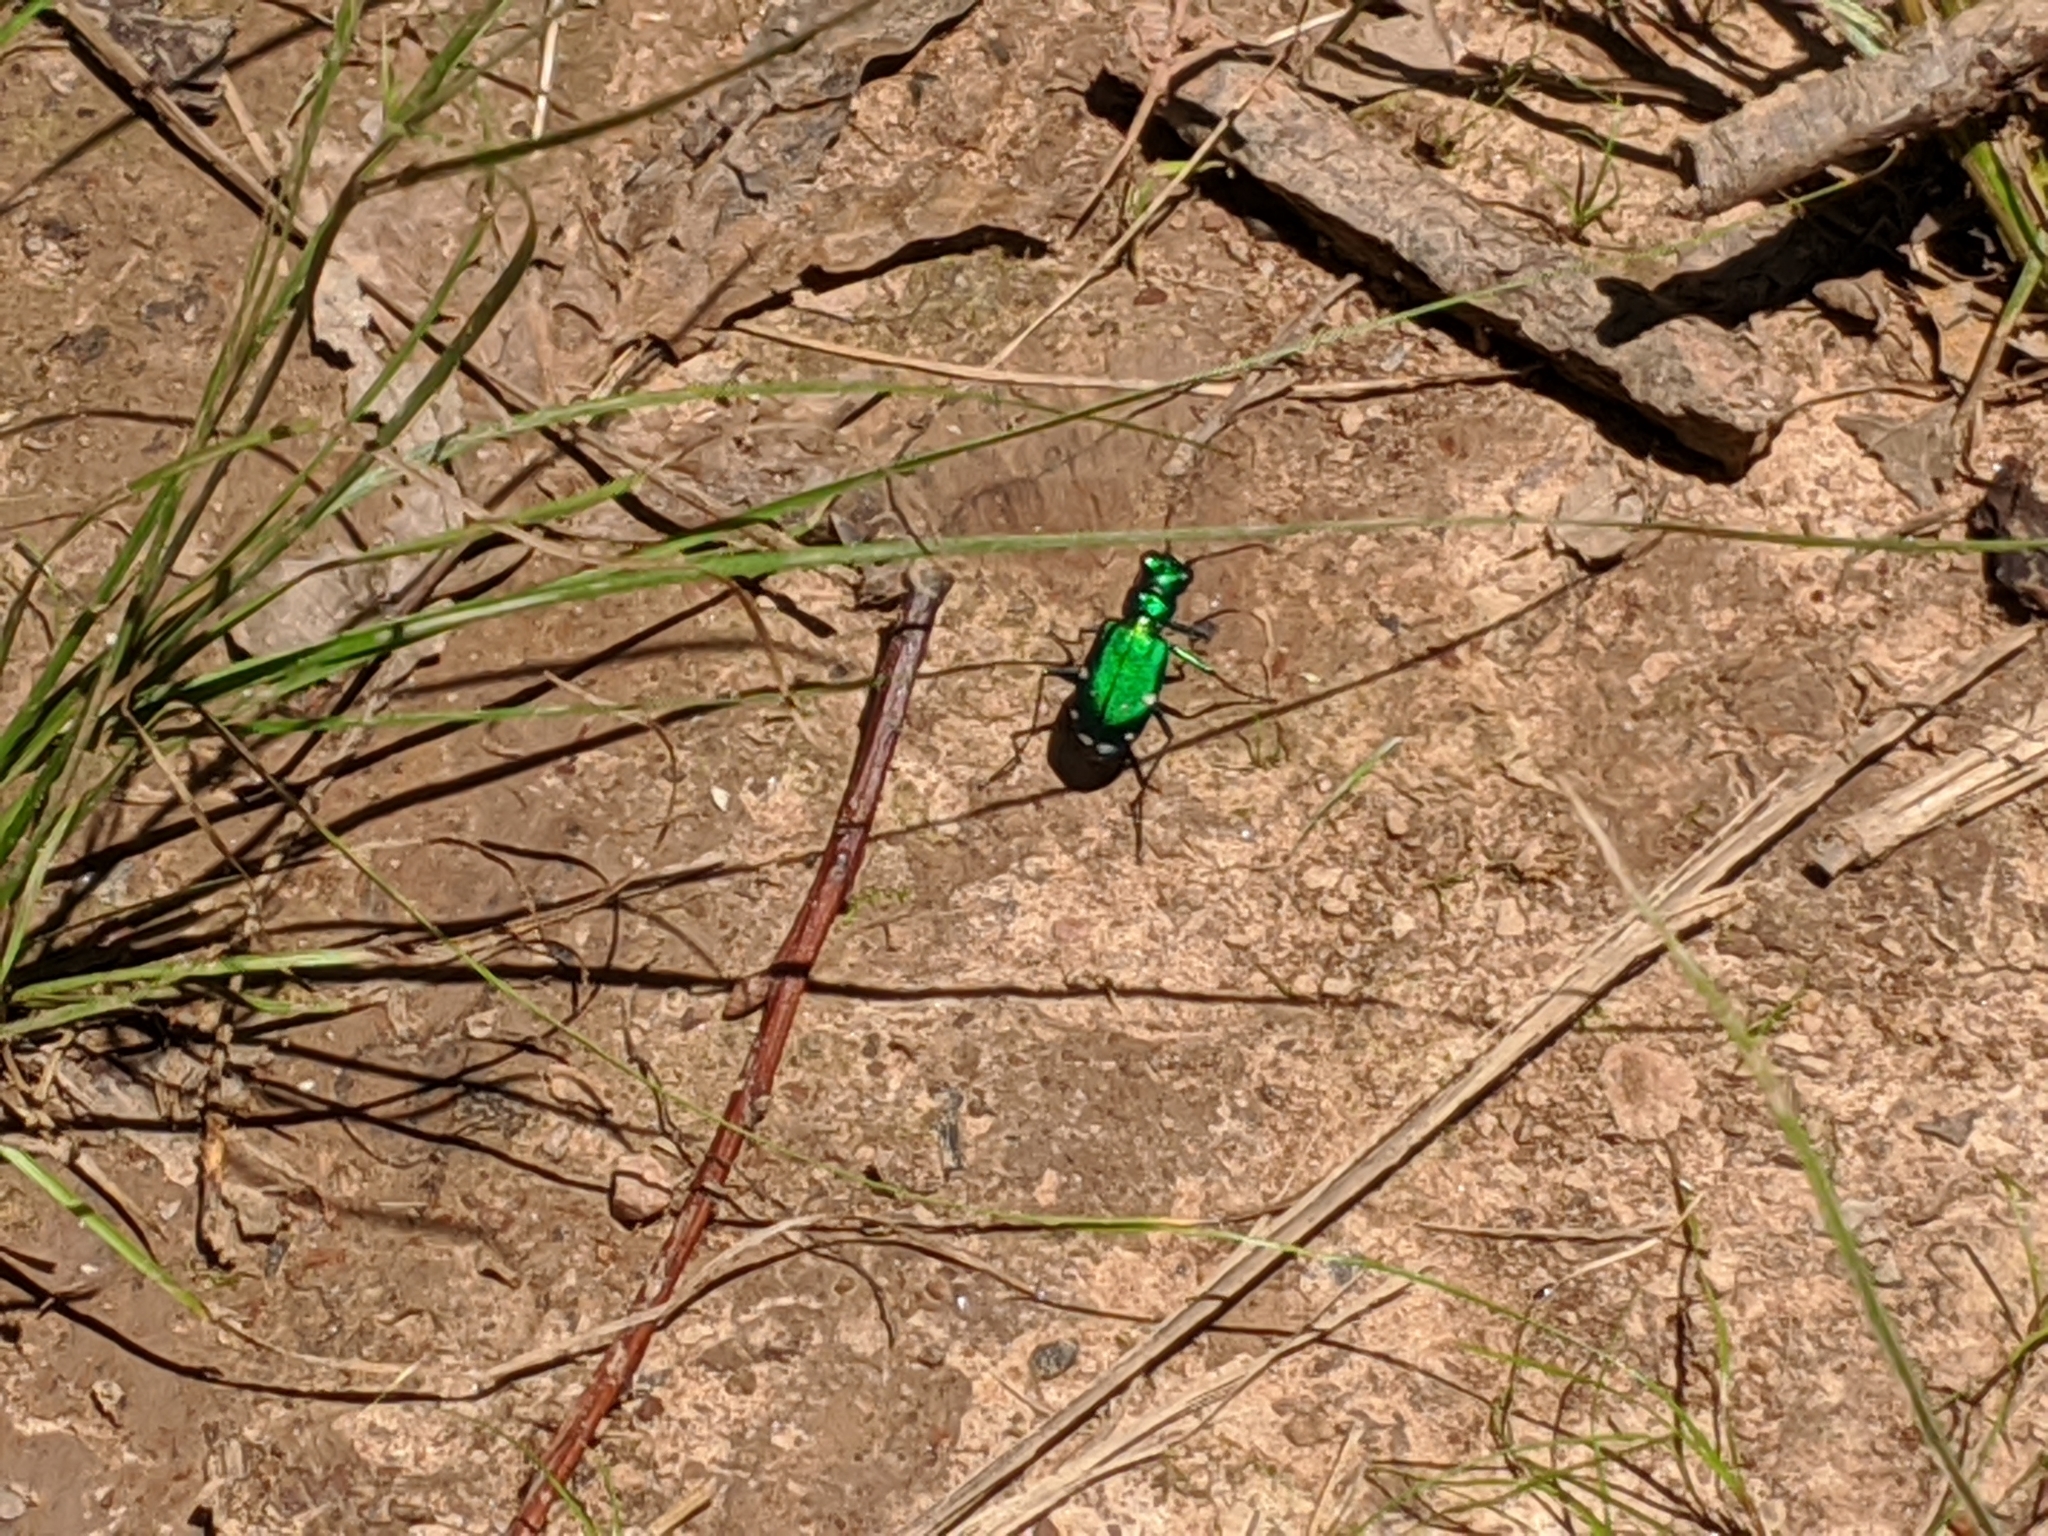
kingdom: Animalia
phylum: Arthropoda
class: Insecta
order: Coleoptera
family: Carabidae
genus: Cicindela
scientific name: Cicindela sexguttata
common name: Six-spotted tiger beetle
